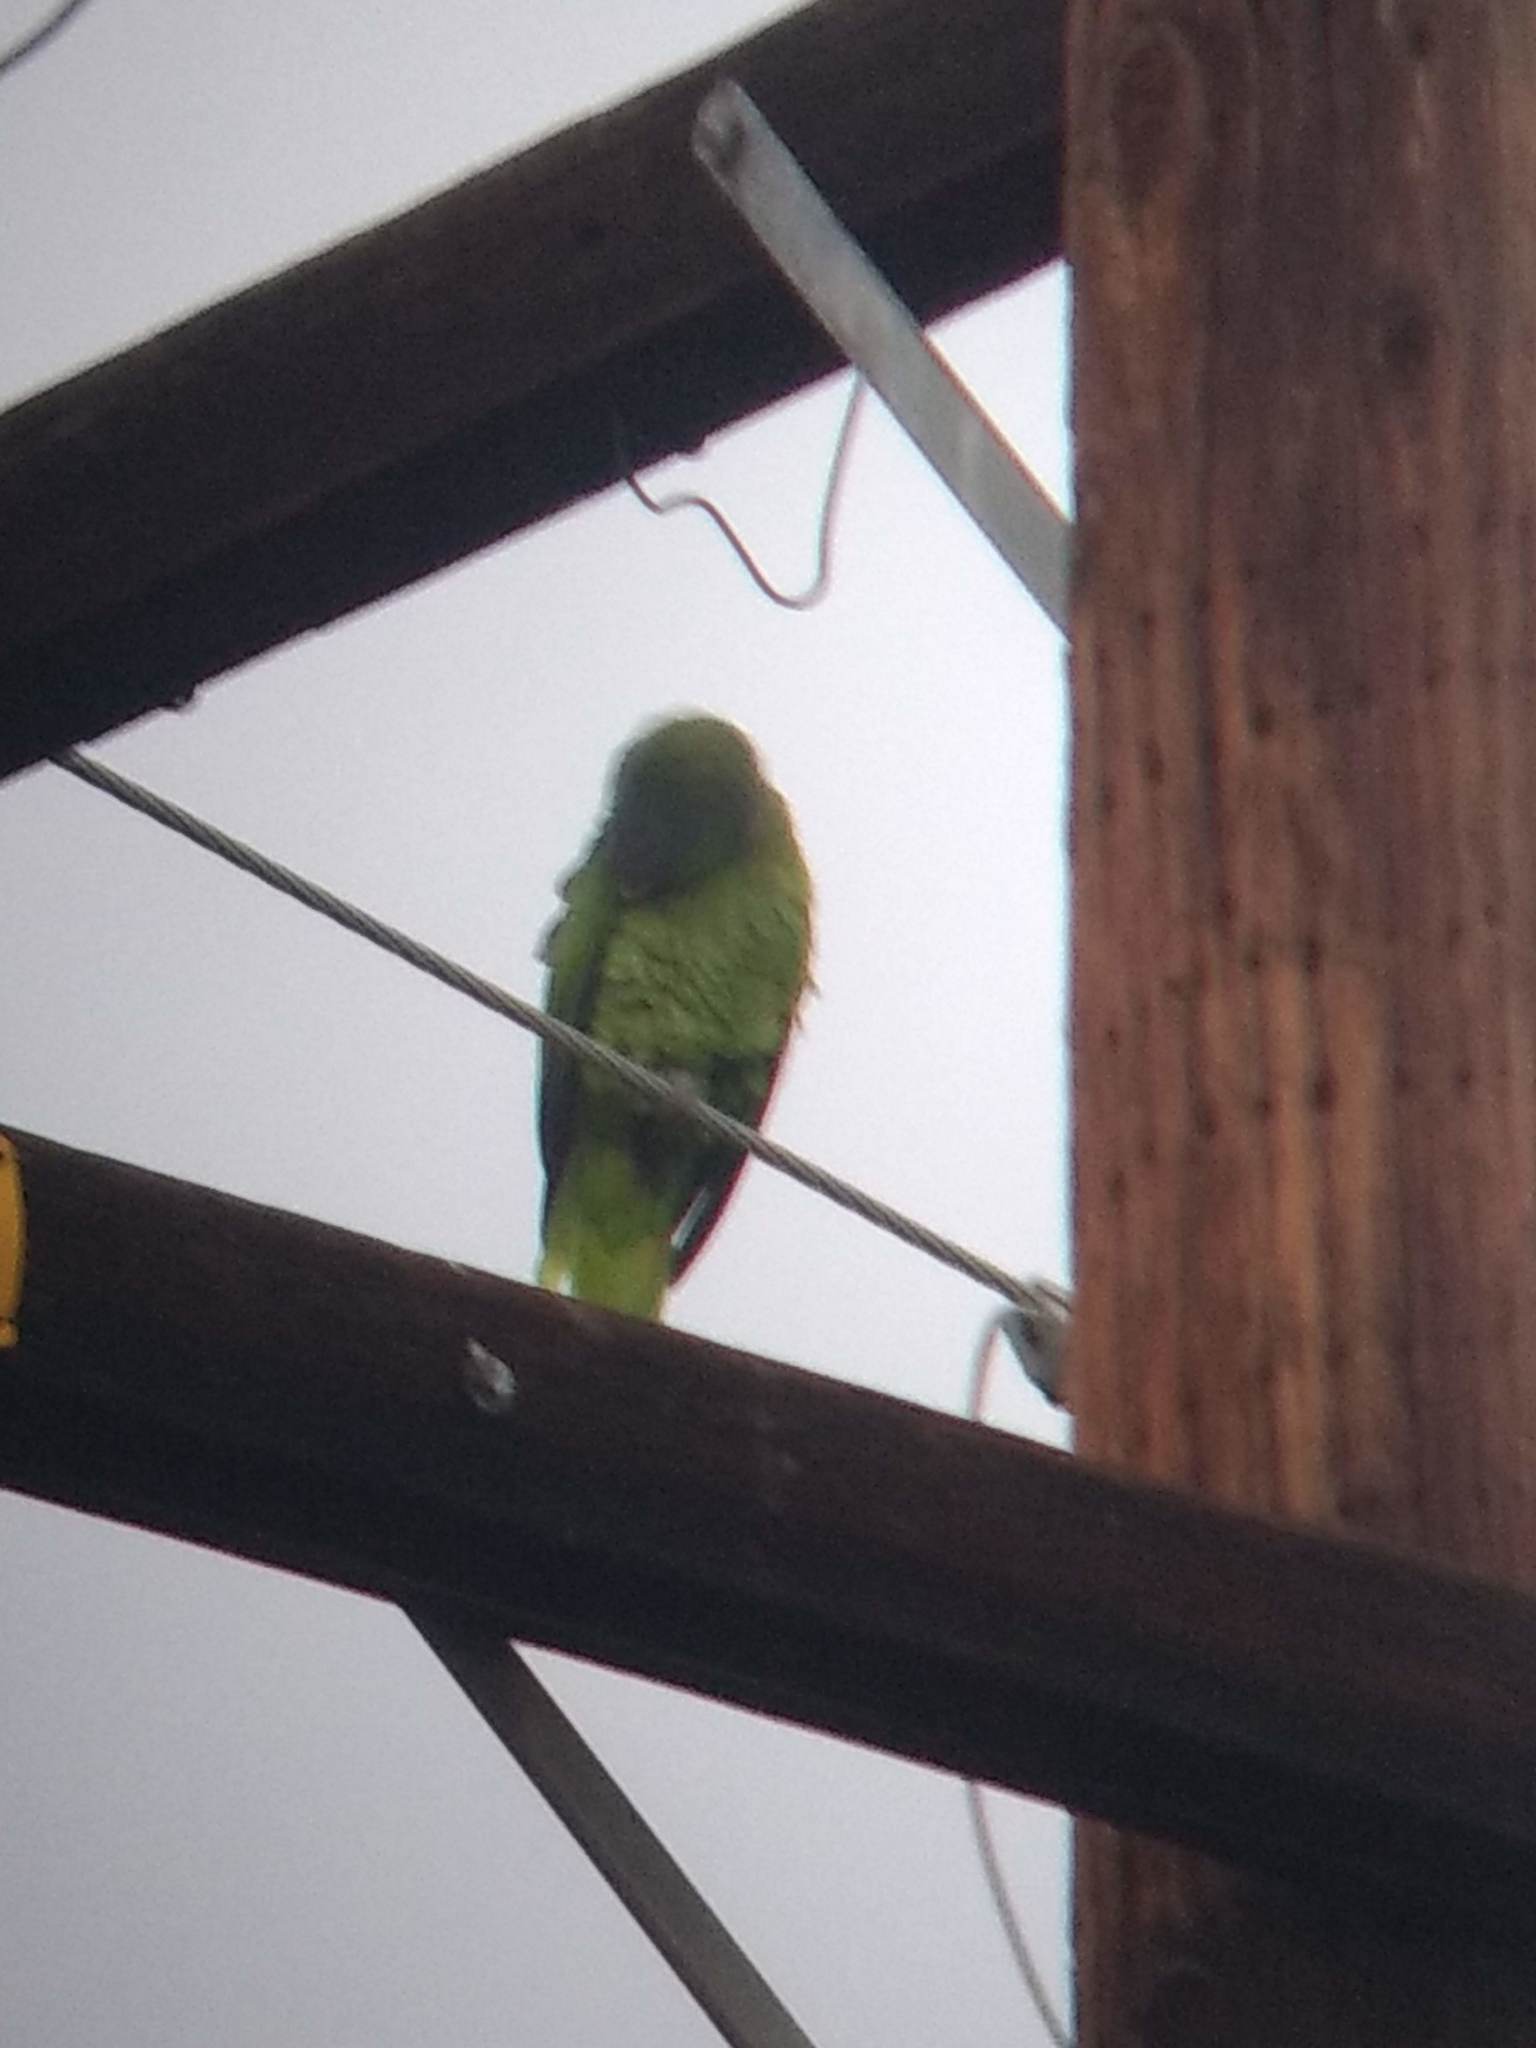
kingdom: Animalia
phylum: Chordata
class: Aves
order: Psittaciformes
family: Psittacidae
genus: Amazona
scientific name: Amazona finschi
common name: Lilac-crowned amazon
